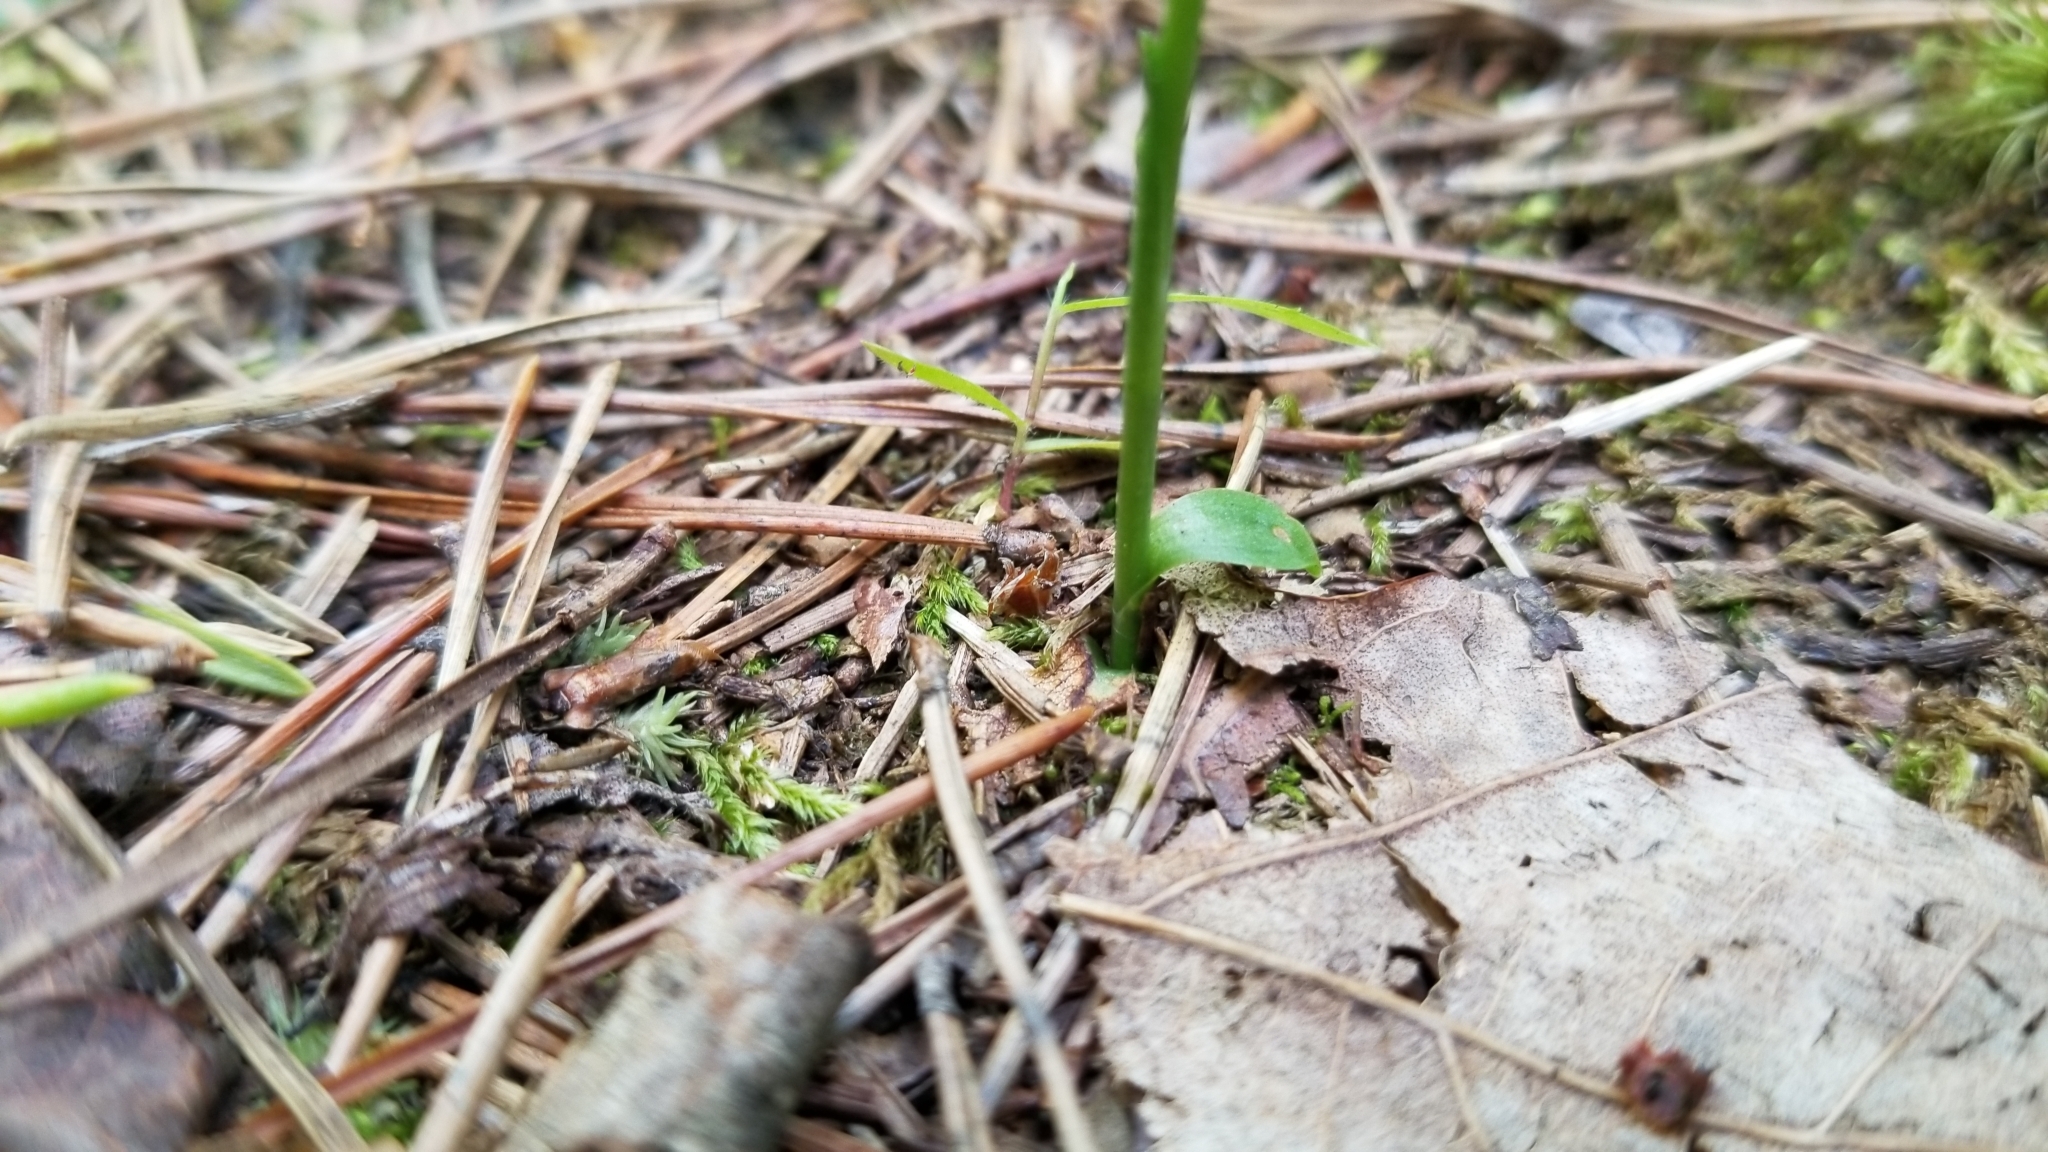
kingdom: Plantae
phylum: Tracheophyta
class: Liliopsida
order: Asparagales
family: Orchidaceae
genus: Spiranthes
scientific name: Spiranthes lacera
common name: Northern slender ladies'-tresses
